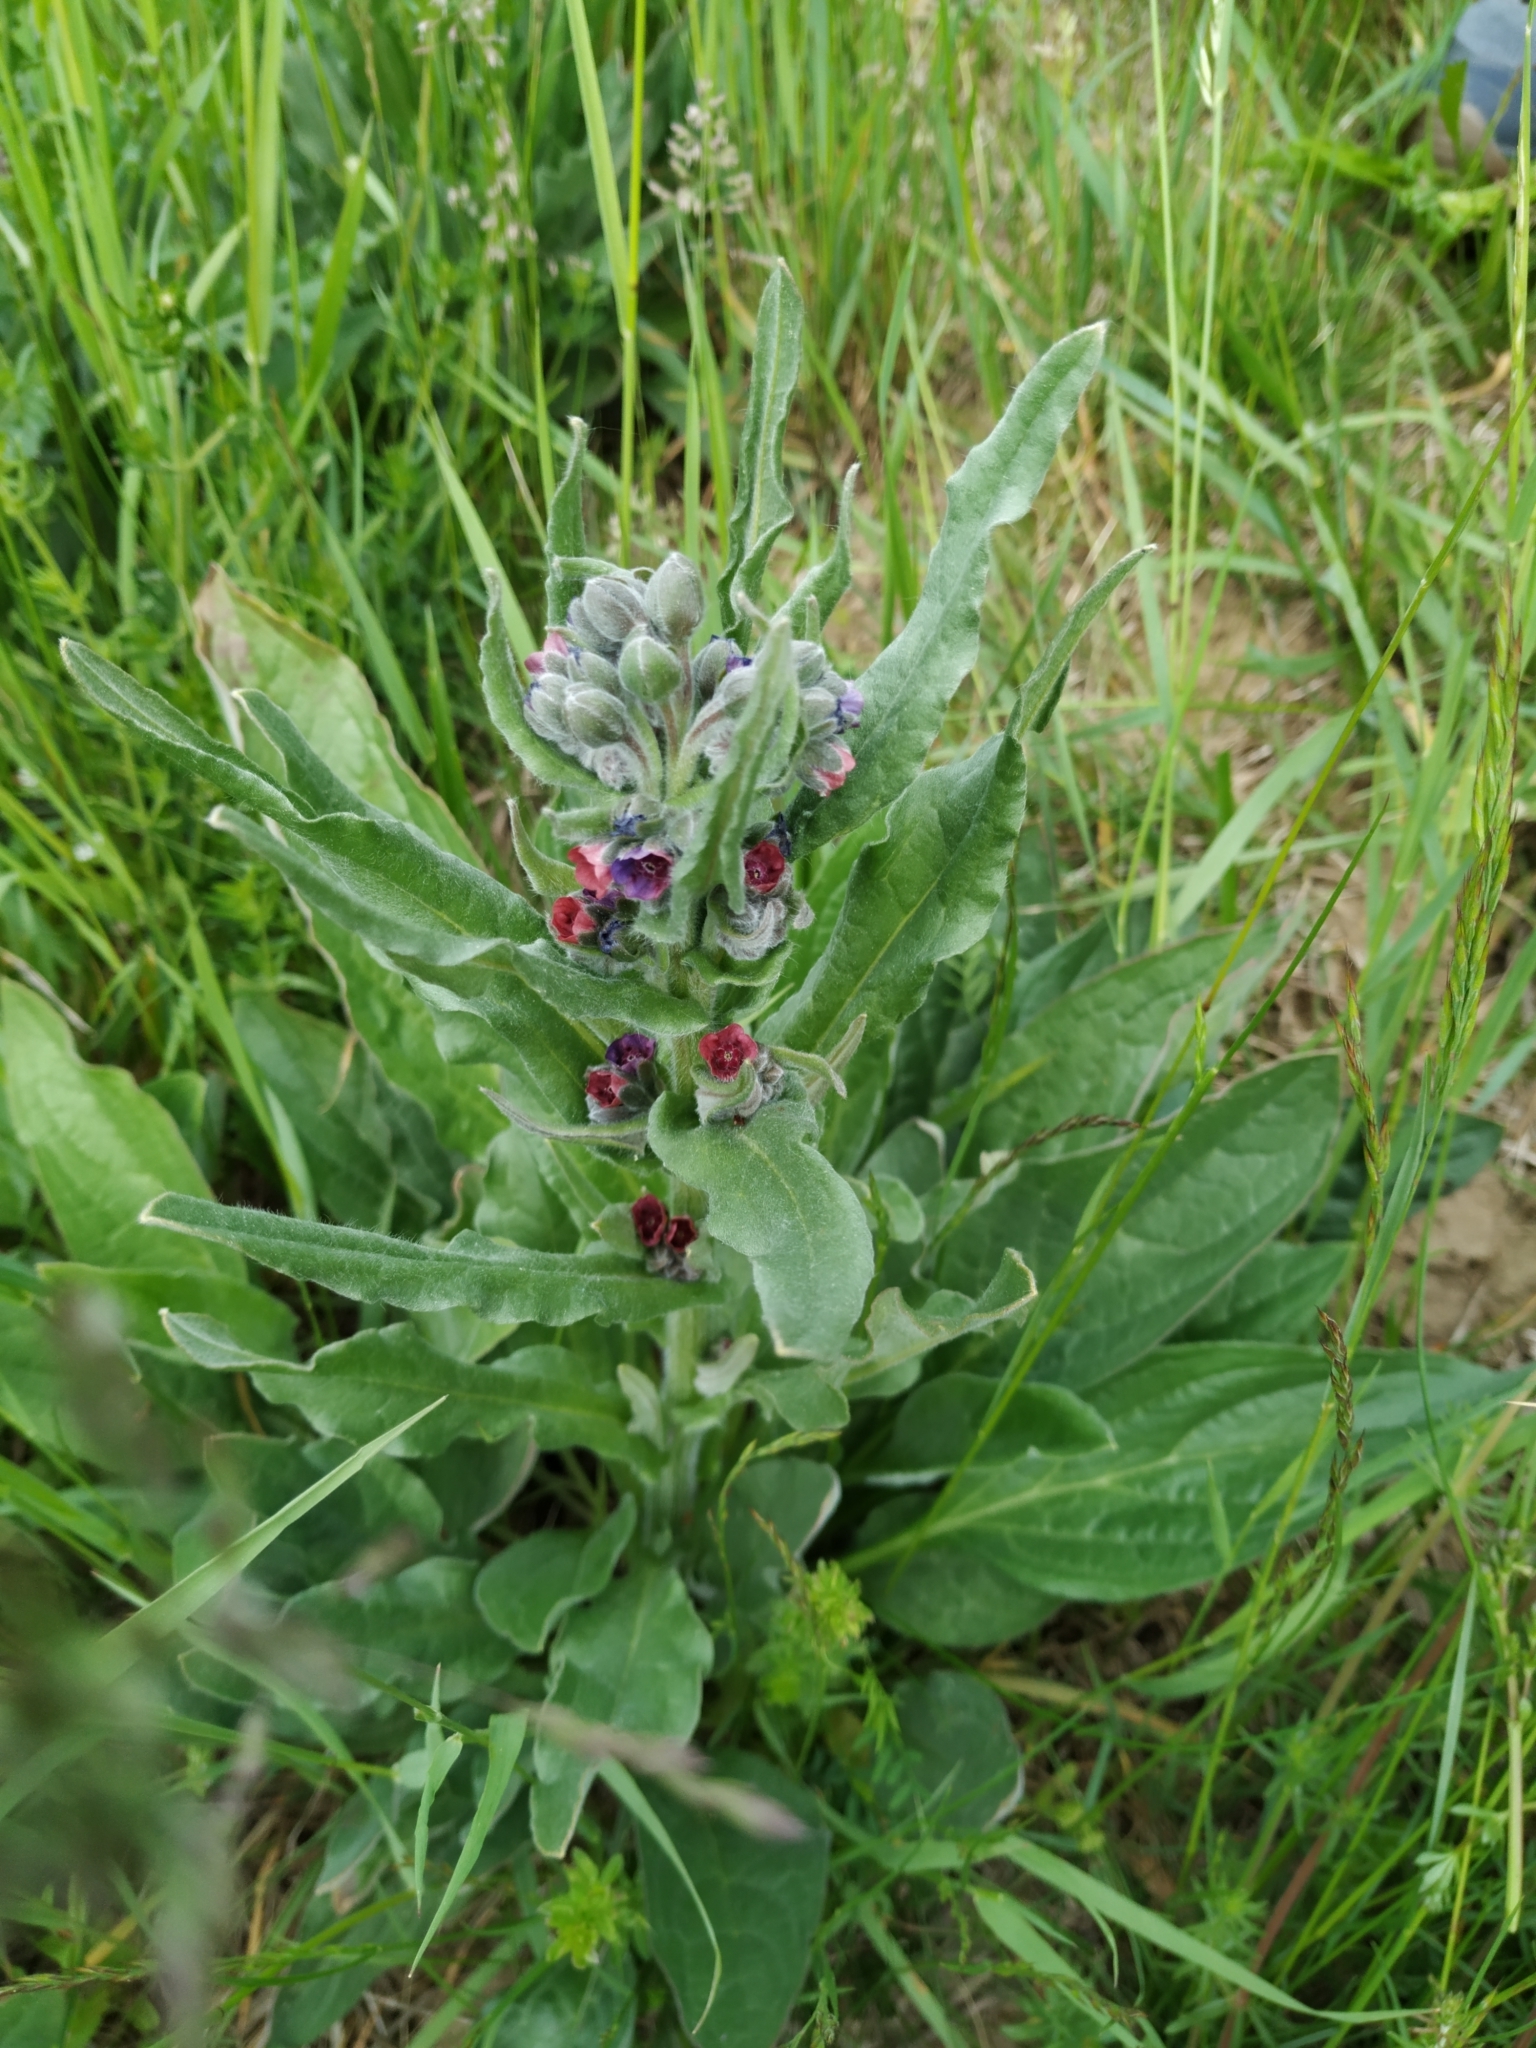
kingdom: Plantae
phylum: Tracheophyta
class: Magnoliopsida
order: Boraginales
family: Boraginaceae
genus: Cynoglossum
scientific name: Cynoglossum officinale
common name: Hound's-tongue
